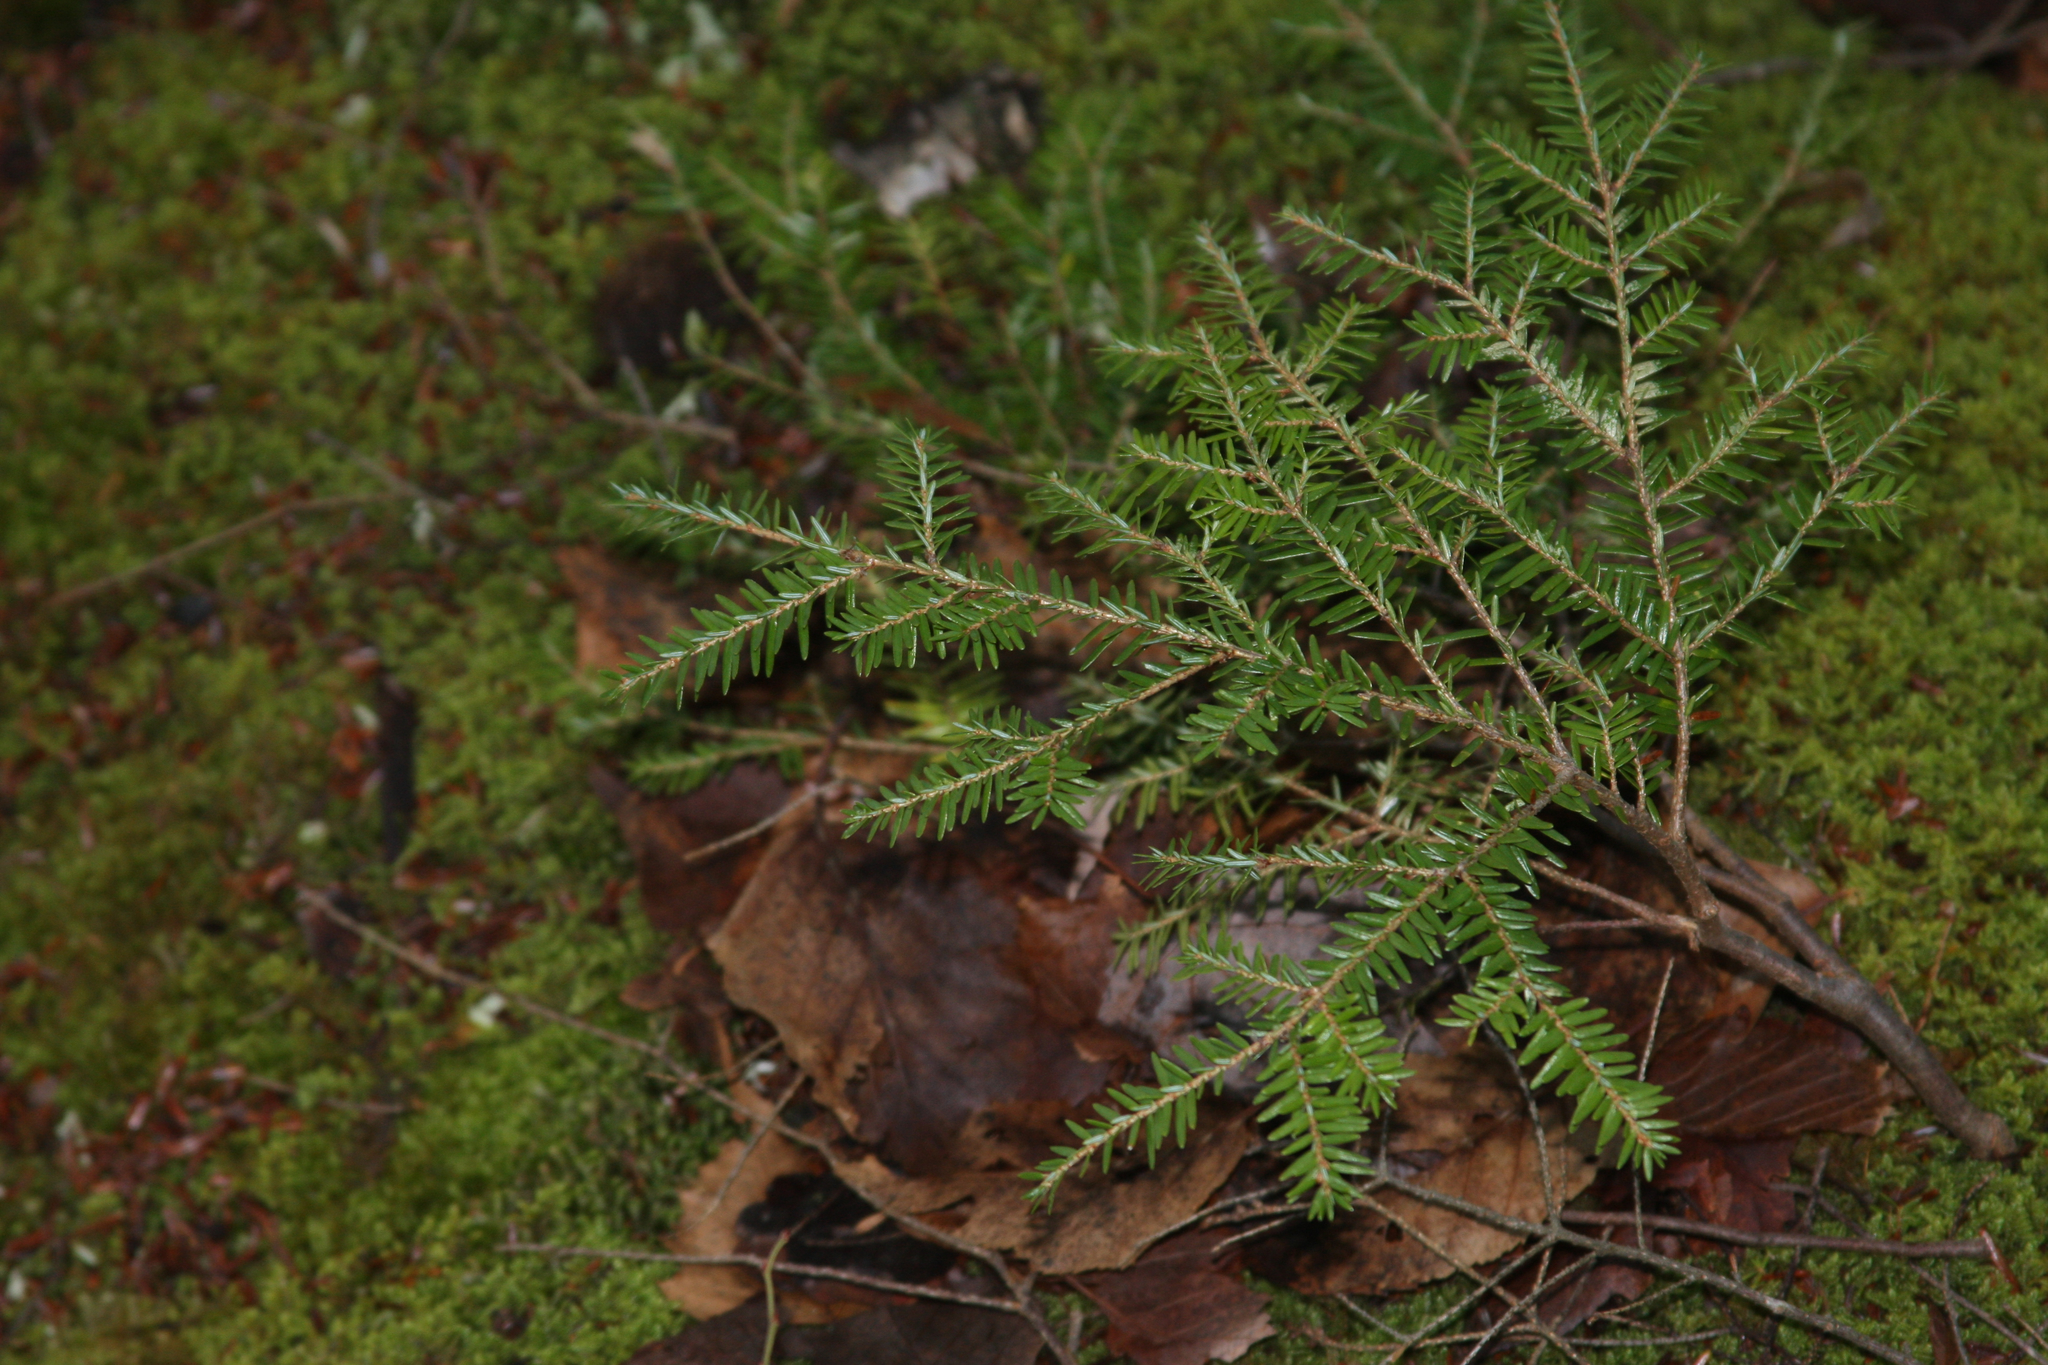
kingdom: Plantae
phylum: Tracheophyta
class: Pinopsida
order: Pinales
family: Pinaceae
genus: Tsuga
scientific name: Tsuga canadensis
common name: Eastern hemlock
